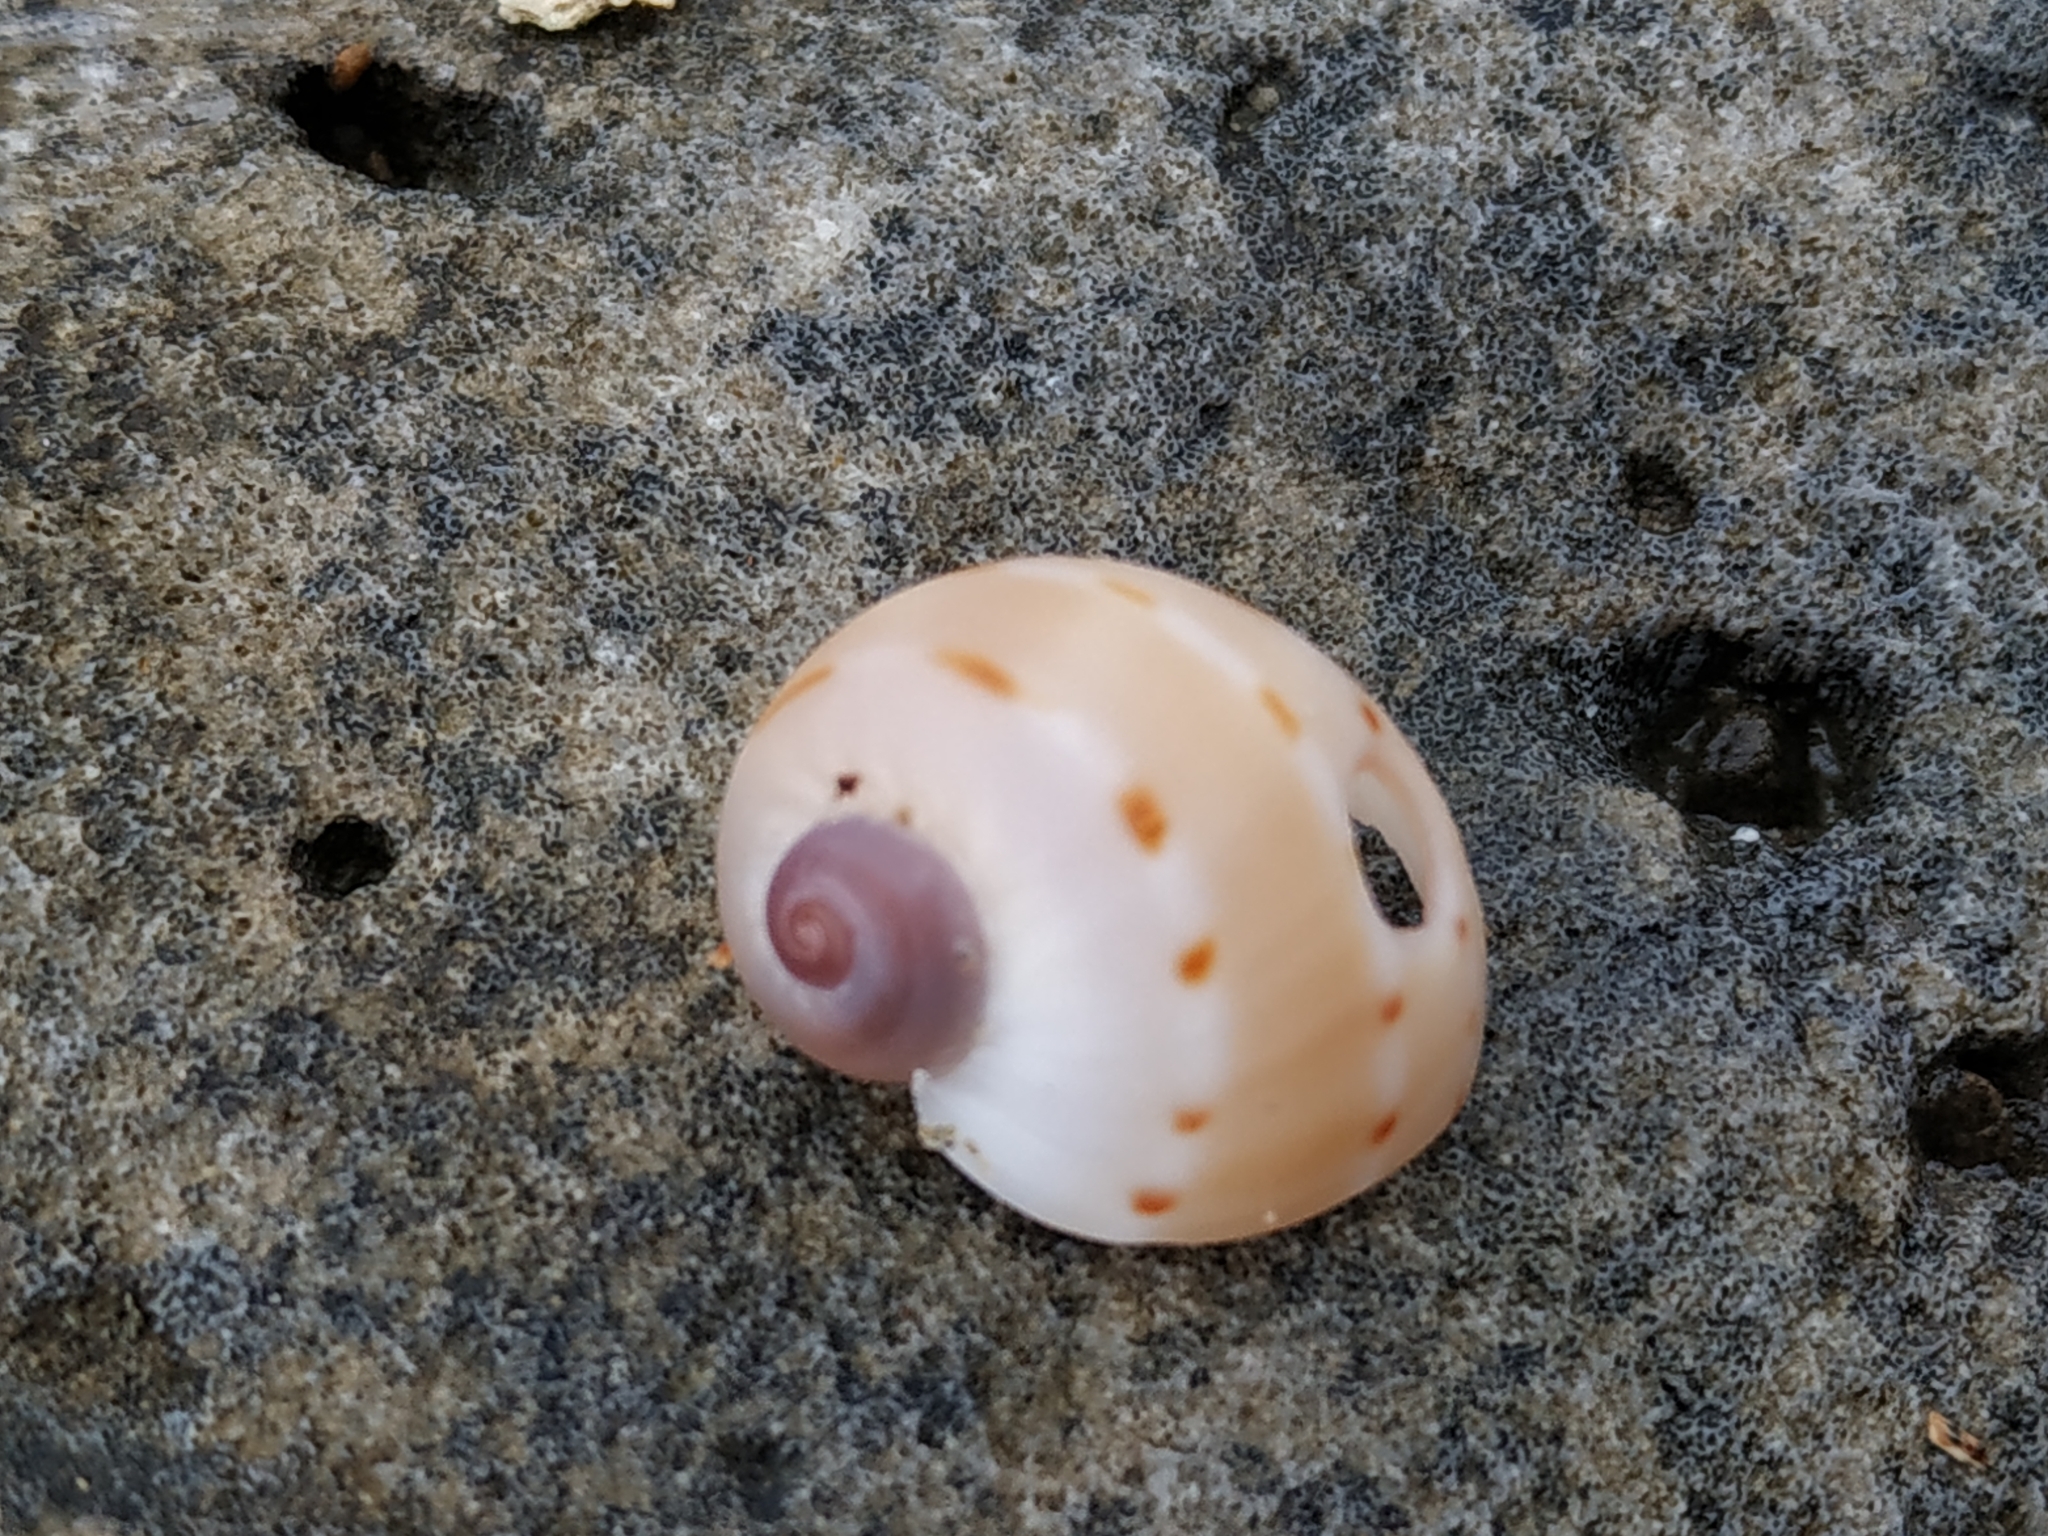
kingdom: Animalia
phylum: Mollusca
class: Gastropoda
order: Littorinimorpha
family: Naticidae
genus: Glyphepithema
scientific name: Glyphepithema alapapilionis
